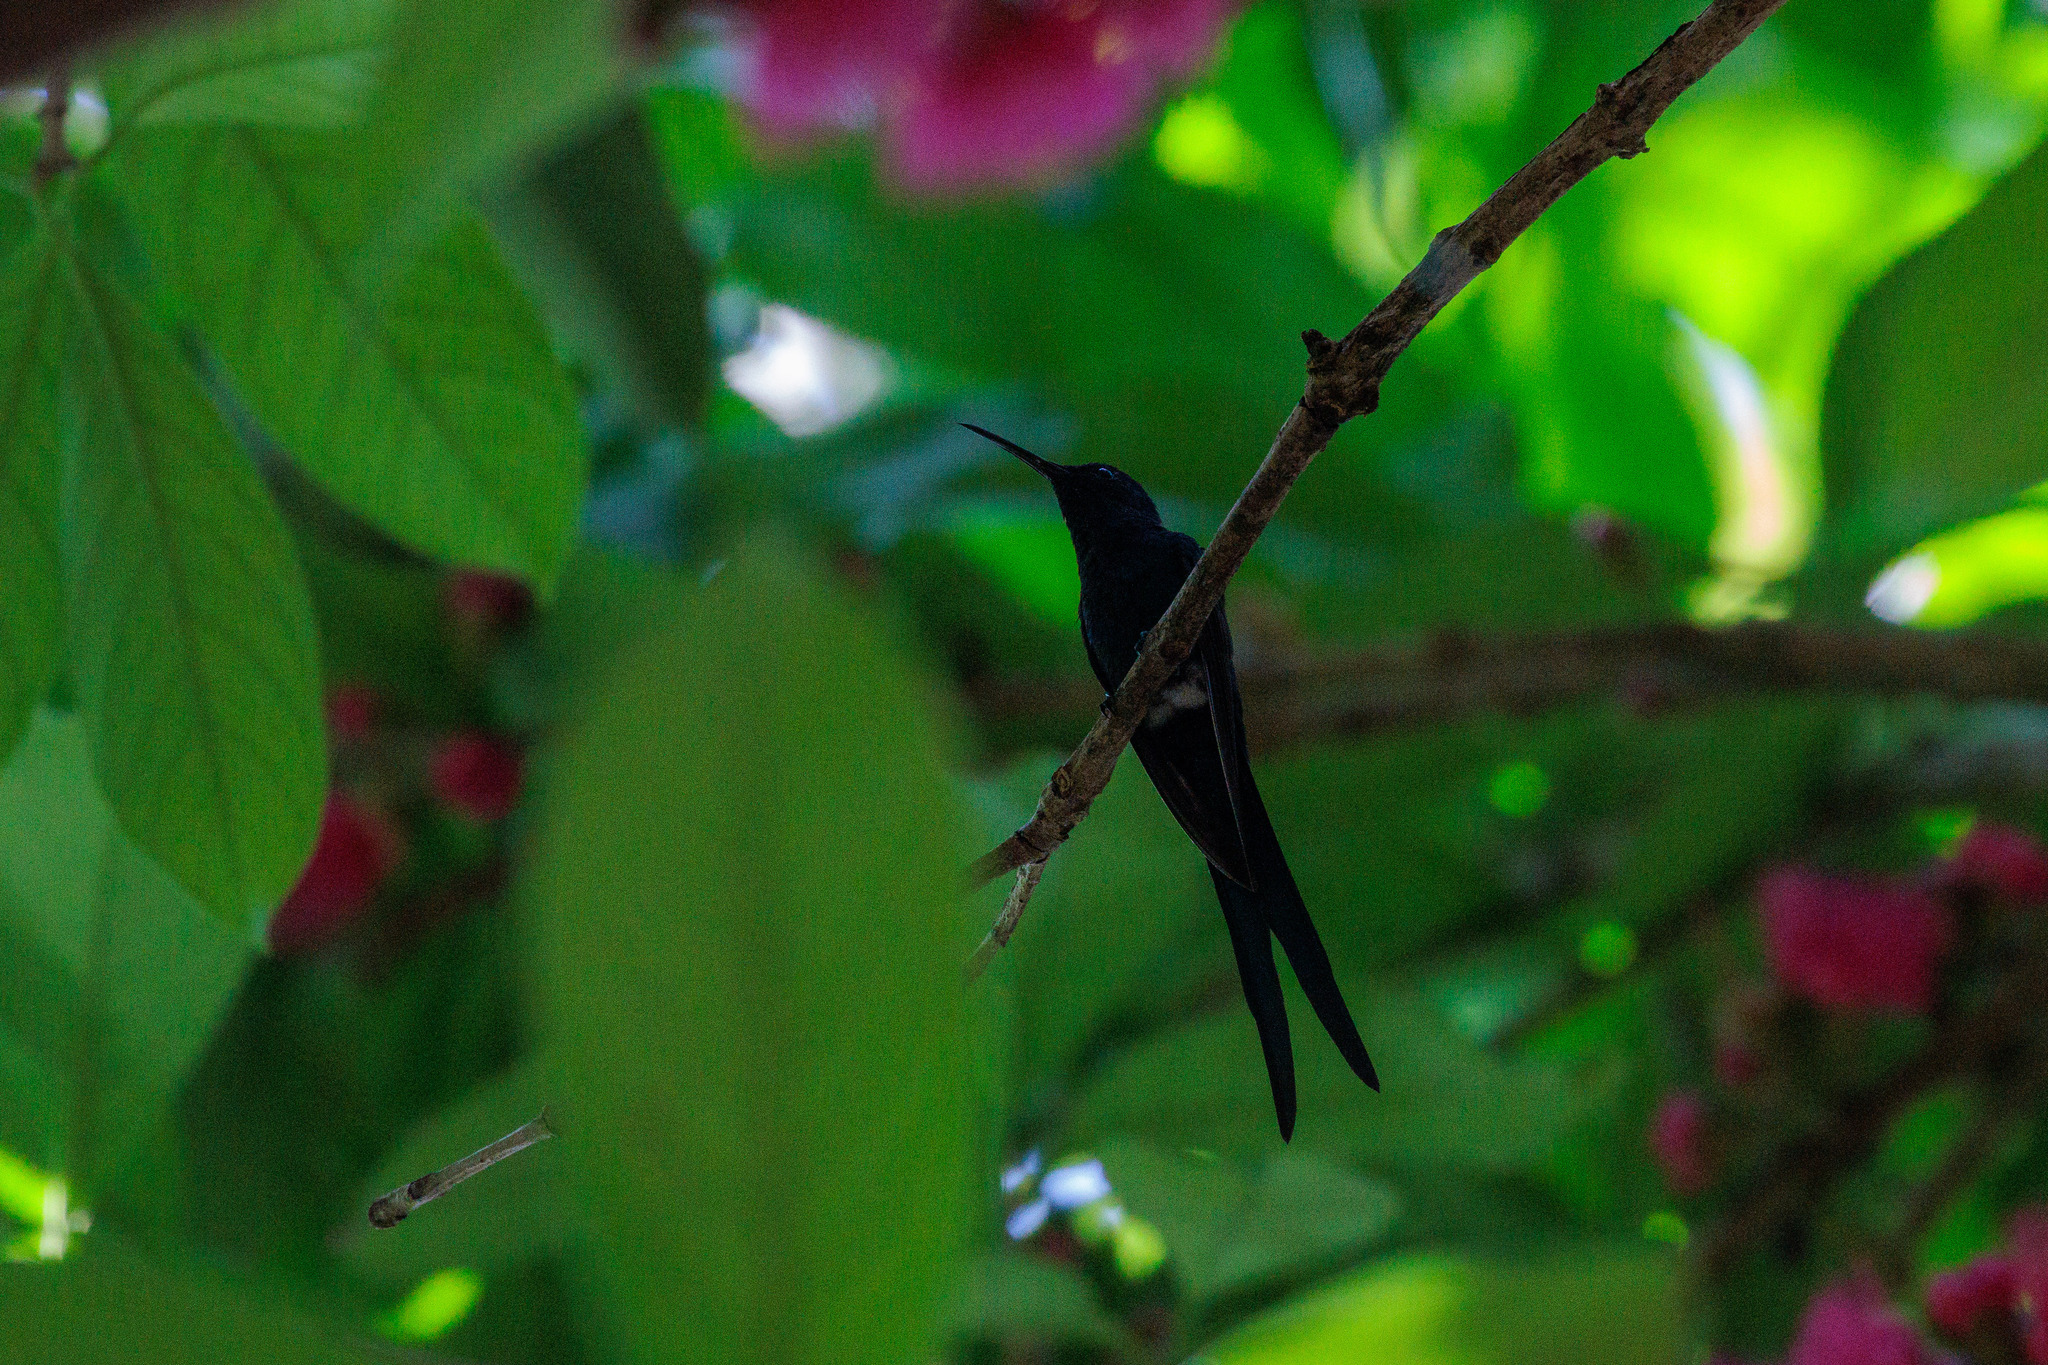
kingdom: Animalia
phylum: Chordata
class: Aves
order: Apodiformes
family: Trochilidae
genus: Eupetomena
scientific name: Eupetomena macroura
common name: Swallow-tailed hummingbird
